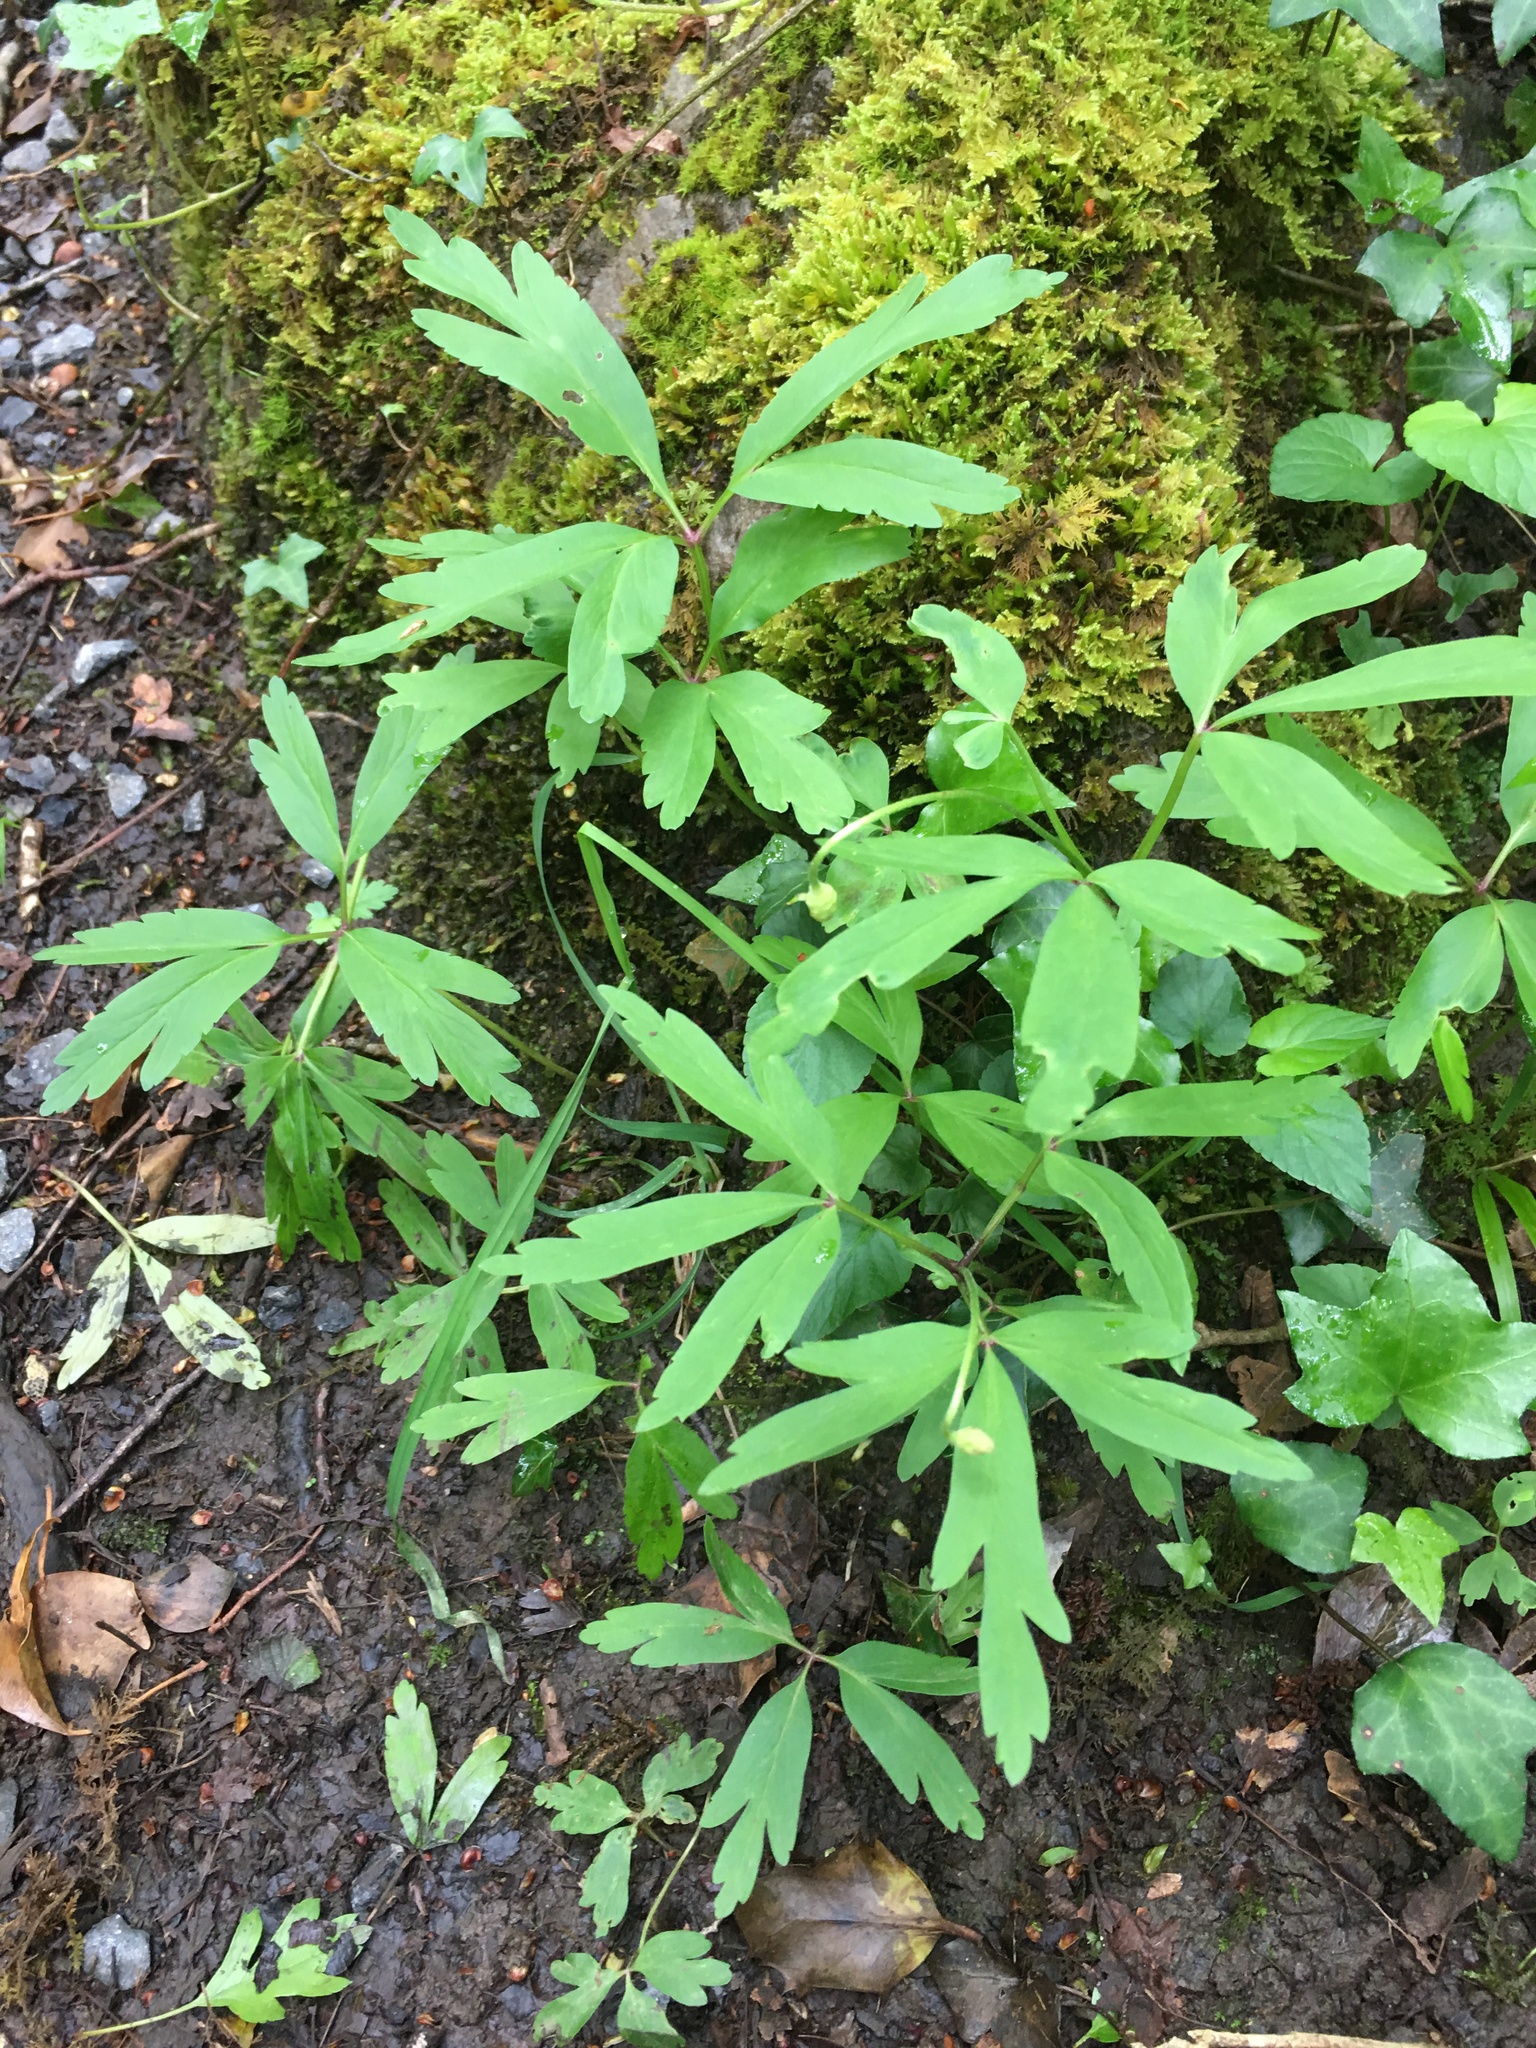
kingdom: Plantae
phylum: Tracheophyta
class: Magnoliopsida
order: Ranunculales
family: Ranunculaceae
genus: Anemone
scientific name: Anemone nemorosa
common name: Wood anemone
